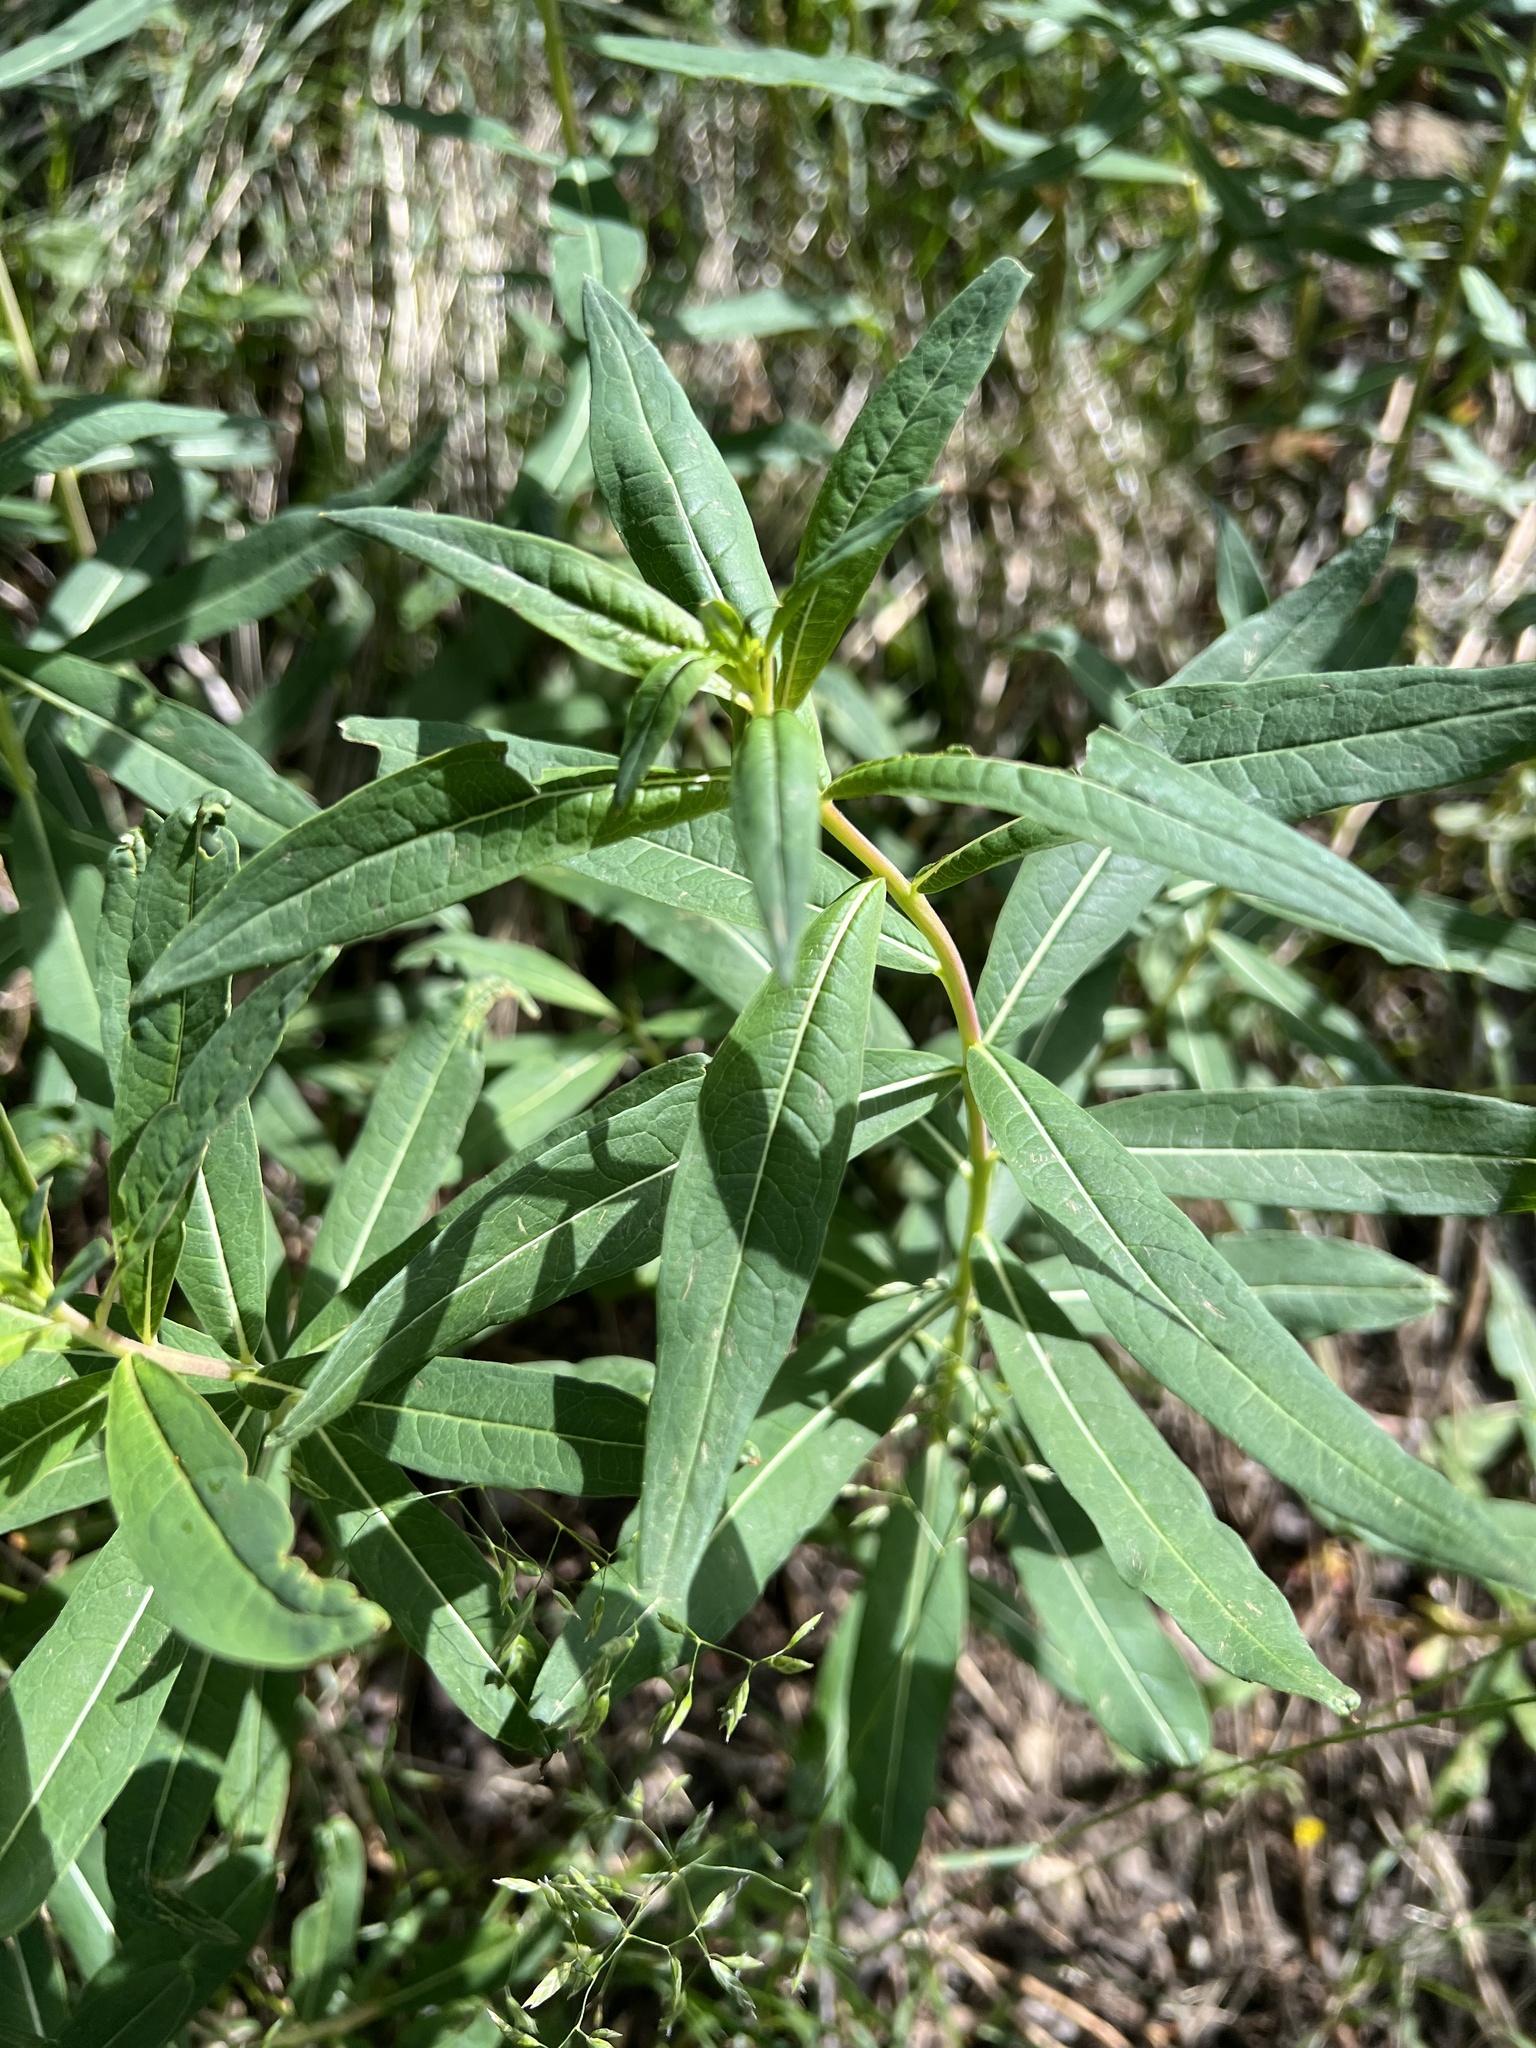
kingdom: Plantae
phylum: Tracheophyta
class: Magnoliopsida
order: Myrtales
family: Onagraceae
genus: Chamaenerion
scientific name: Chamaenerion angustifolium
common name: Fireweed
